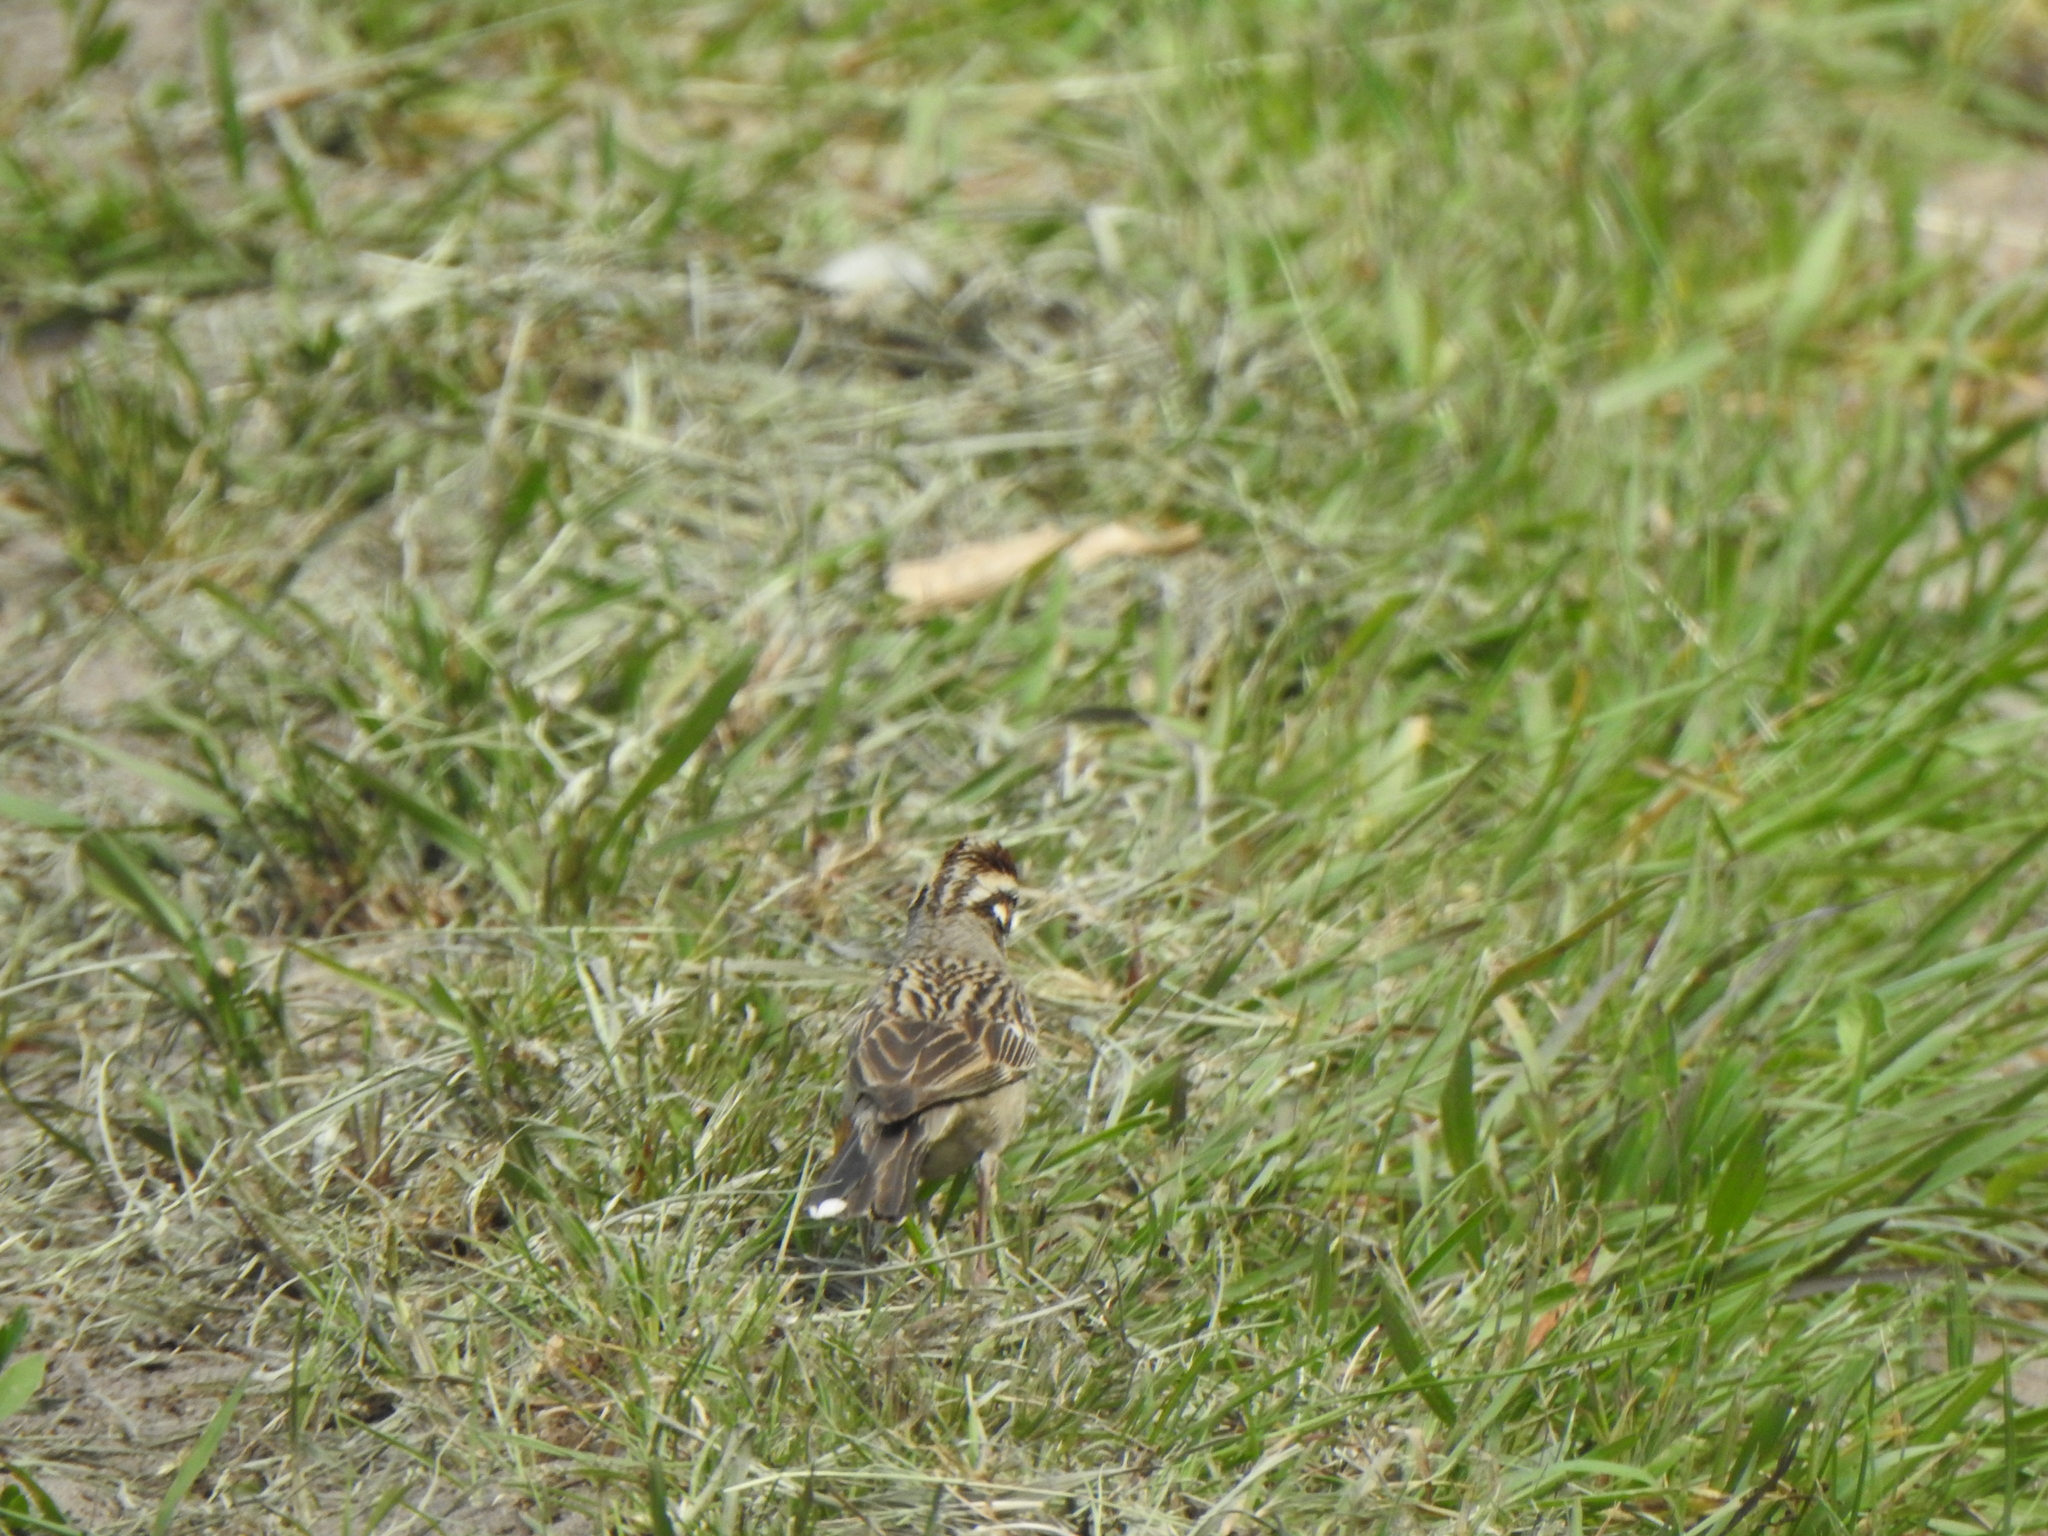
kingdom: Animalia
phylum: Chordata
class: Aves
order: Passeriformes
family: Passerellidae
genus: Chondestes
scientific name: Chondestes grammacus
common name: Lark sparrow
